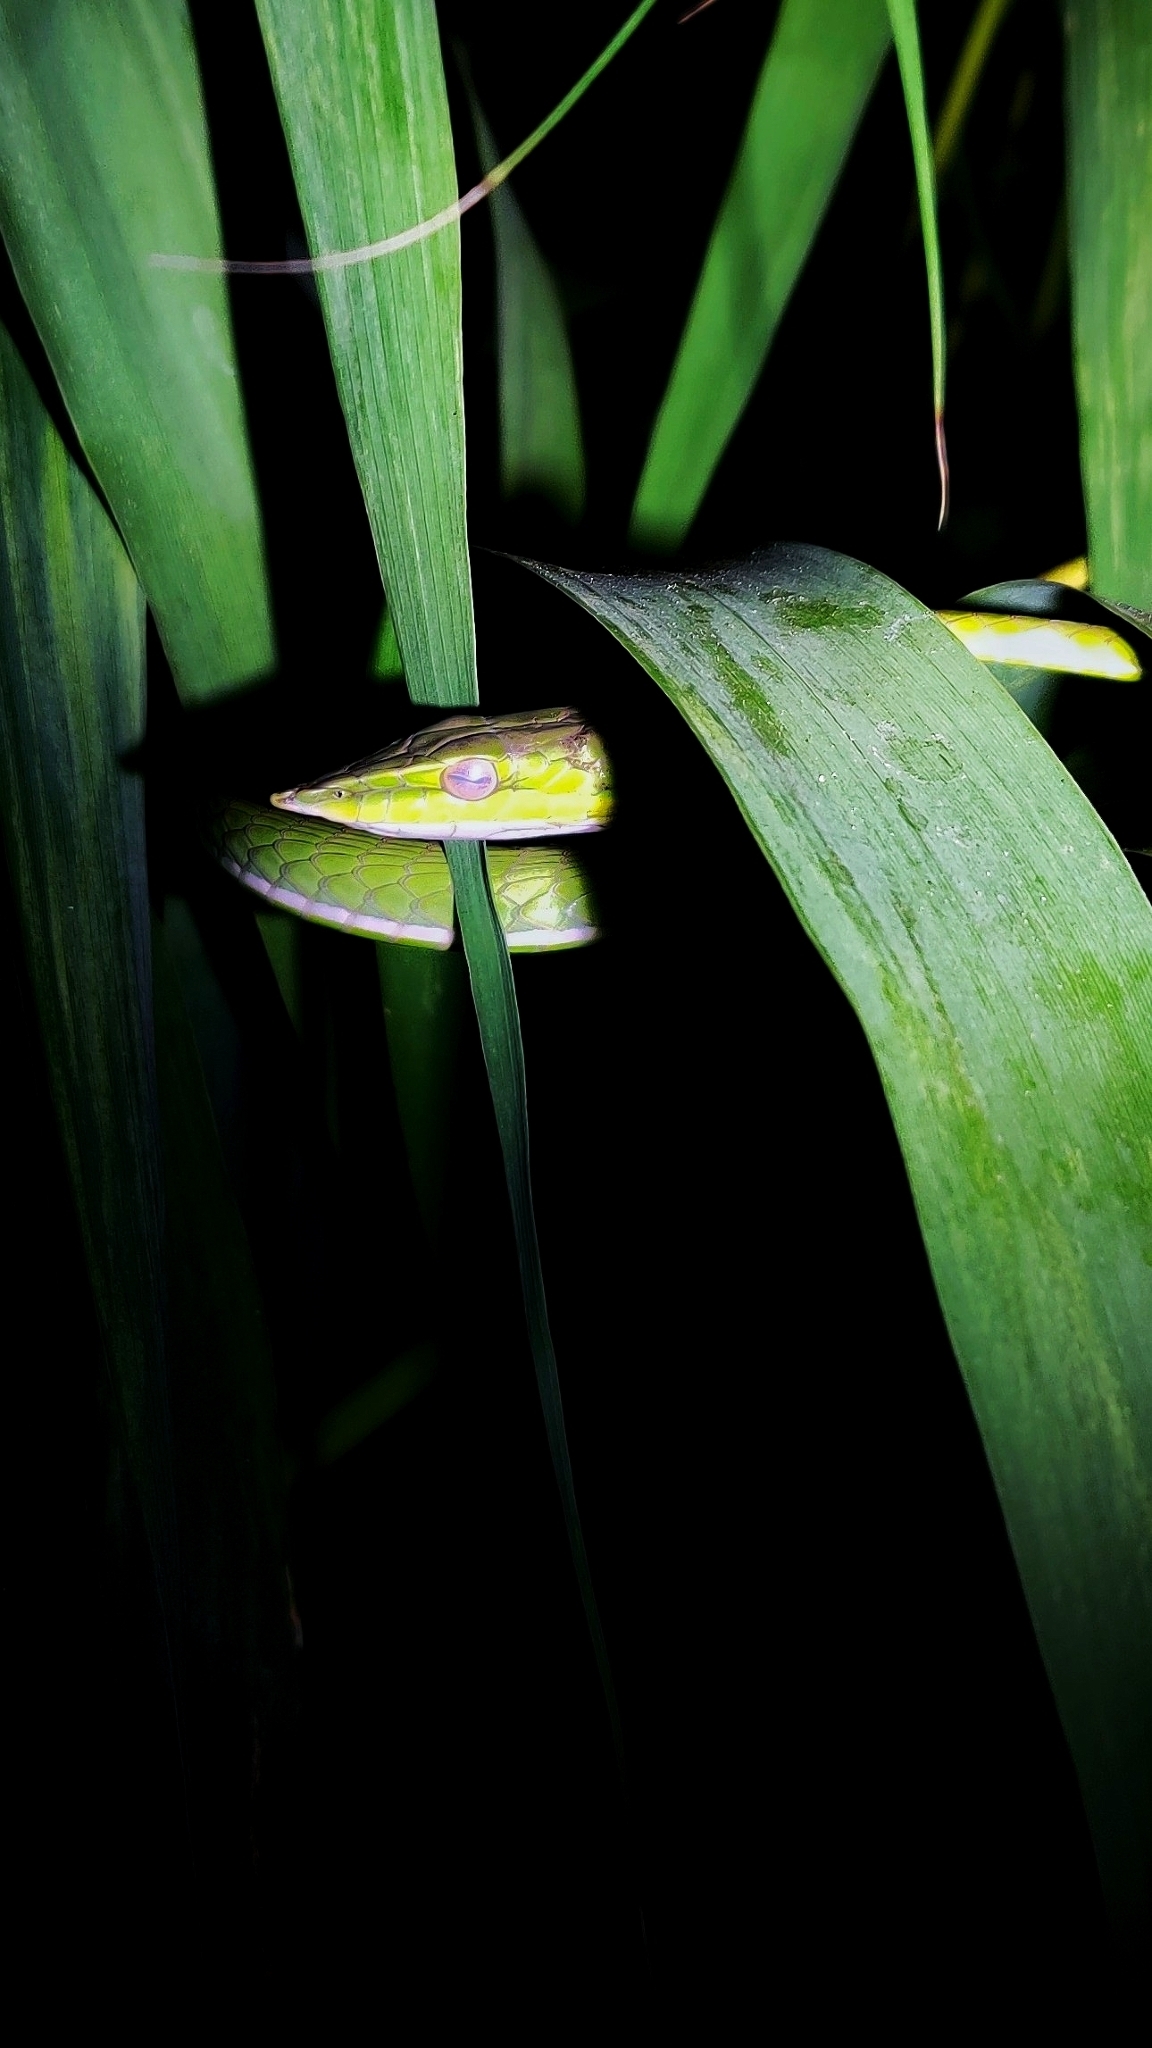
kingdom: Animalia
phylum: Chordata
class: Squamata
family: Colubridae
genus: Ahaetulla
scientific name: Ahaetulla oxyrhyncha
